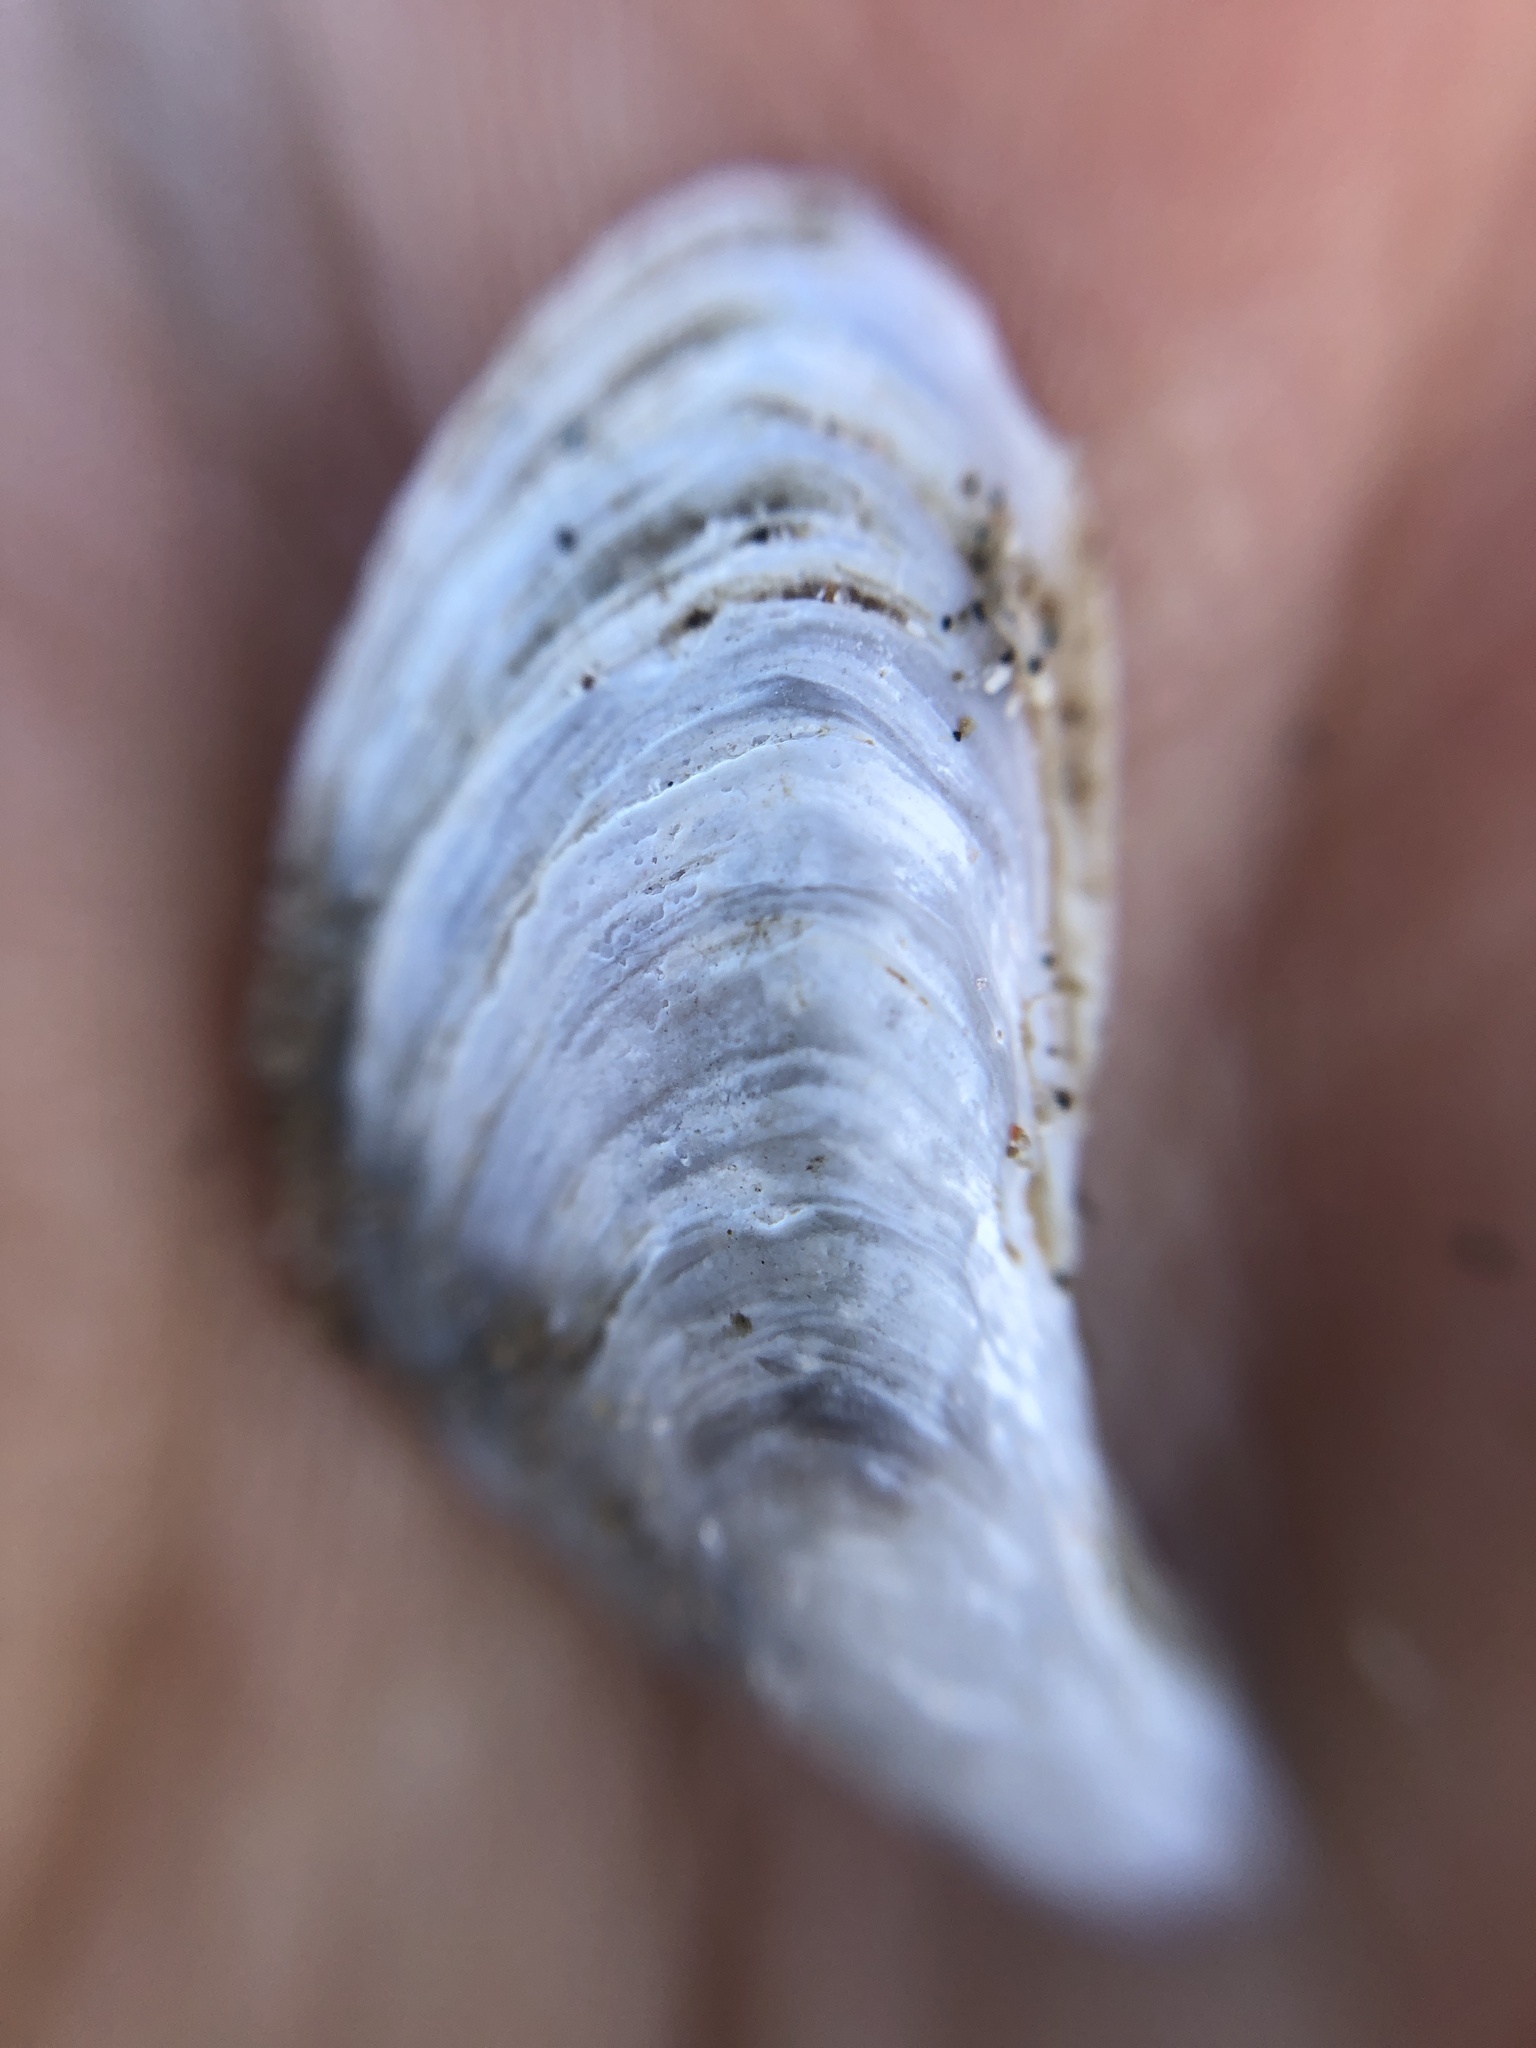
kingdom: Animalia
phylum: Mollusca
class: Bivalvia
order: Myida
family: Dreissenidae
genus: Dreissena
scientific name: Dreissena bugensis
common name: Quagga mussel
